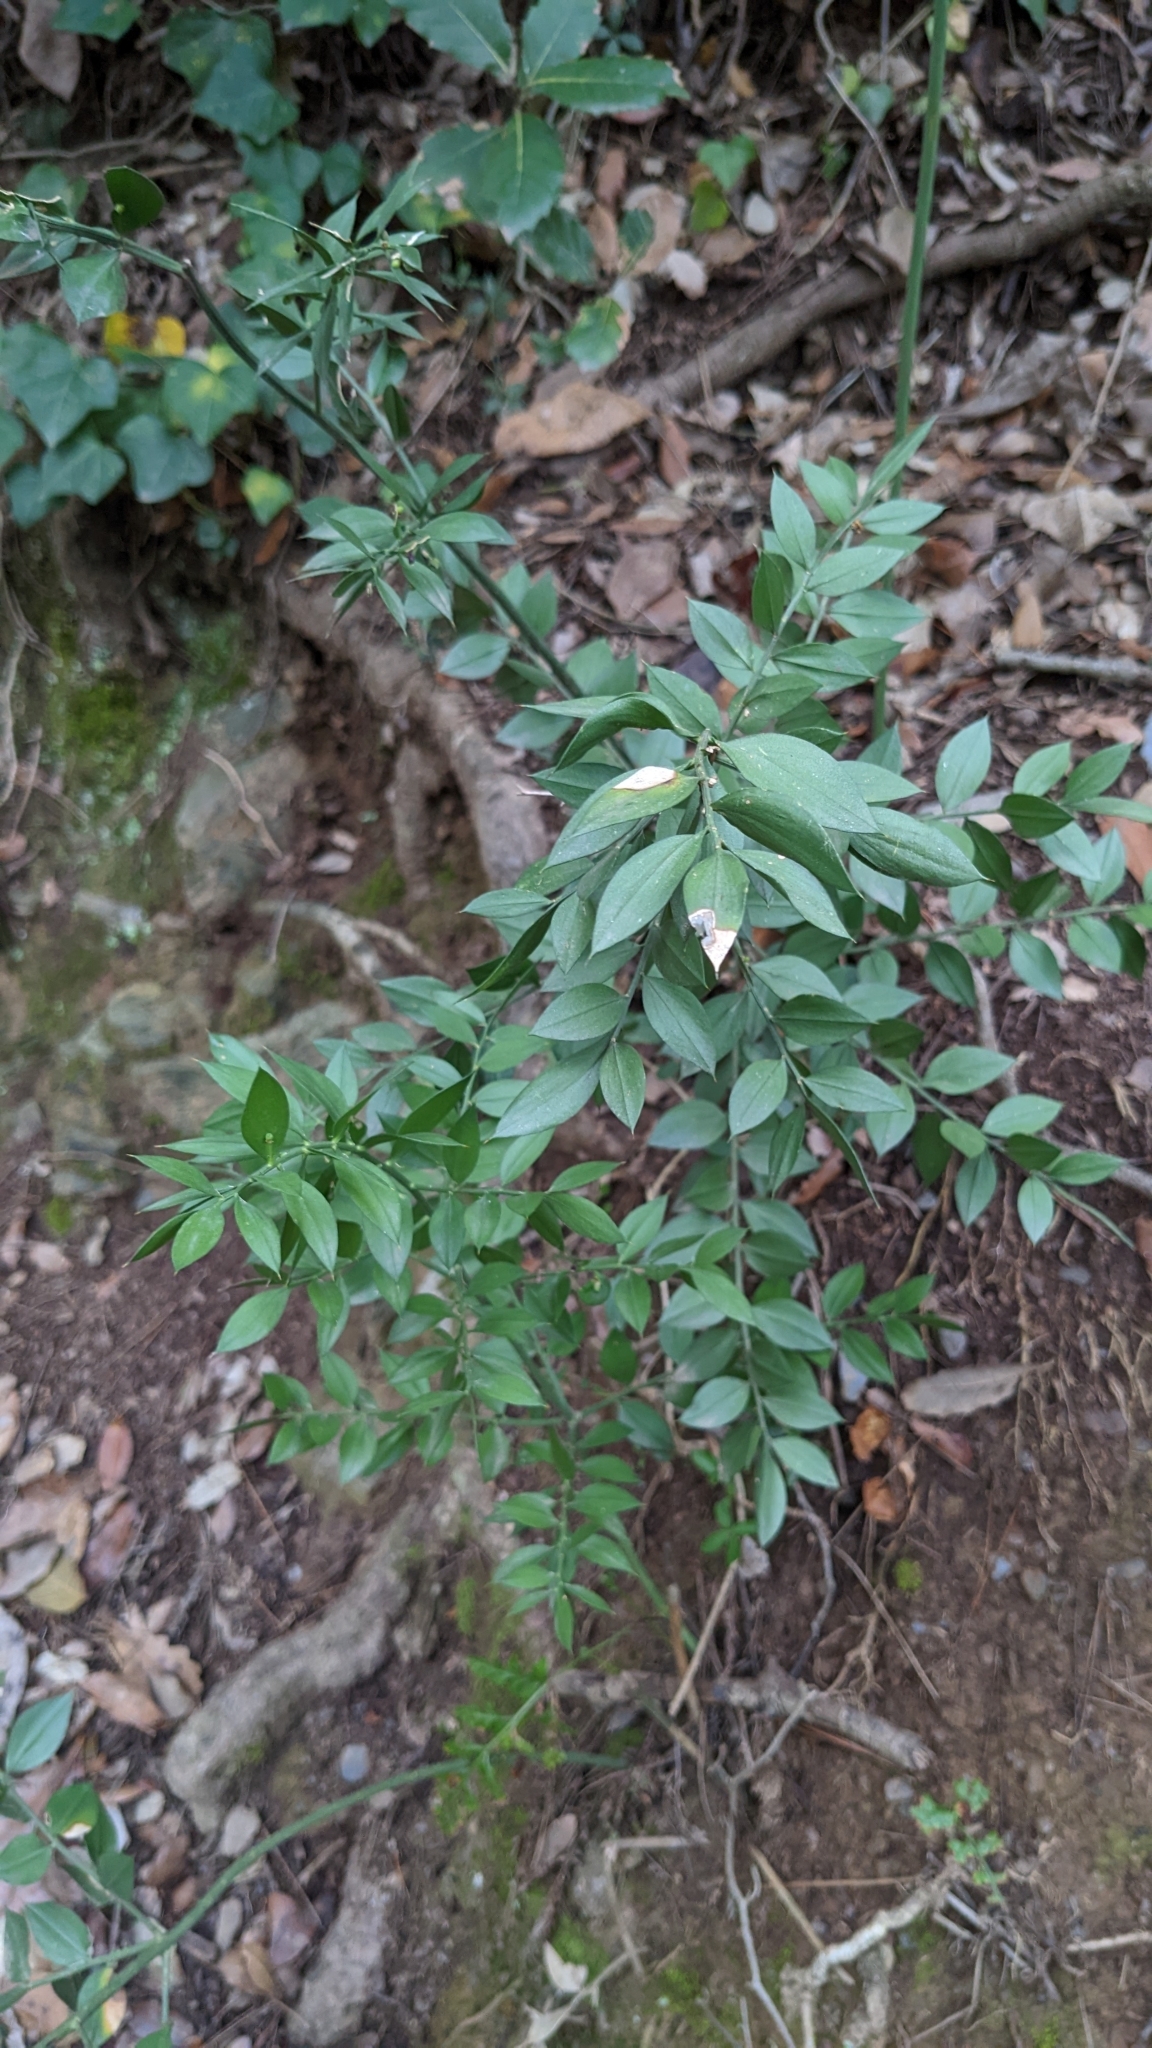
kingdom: Plantae
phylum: Tracheophyta
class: Liliopsida
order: Asparagales
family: Asparagaceae
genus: Ruscus
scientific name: Ruscus aculeatus
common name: Butcher's-broom
